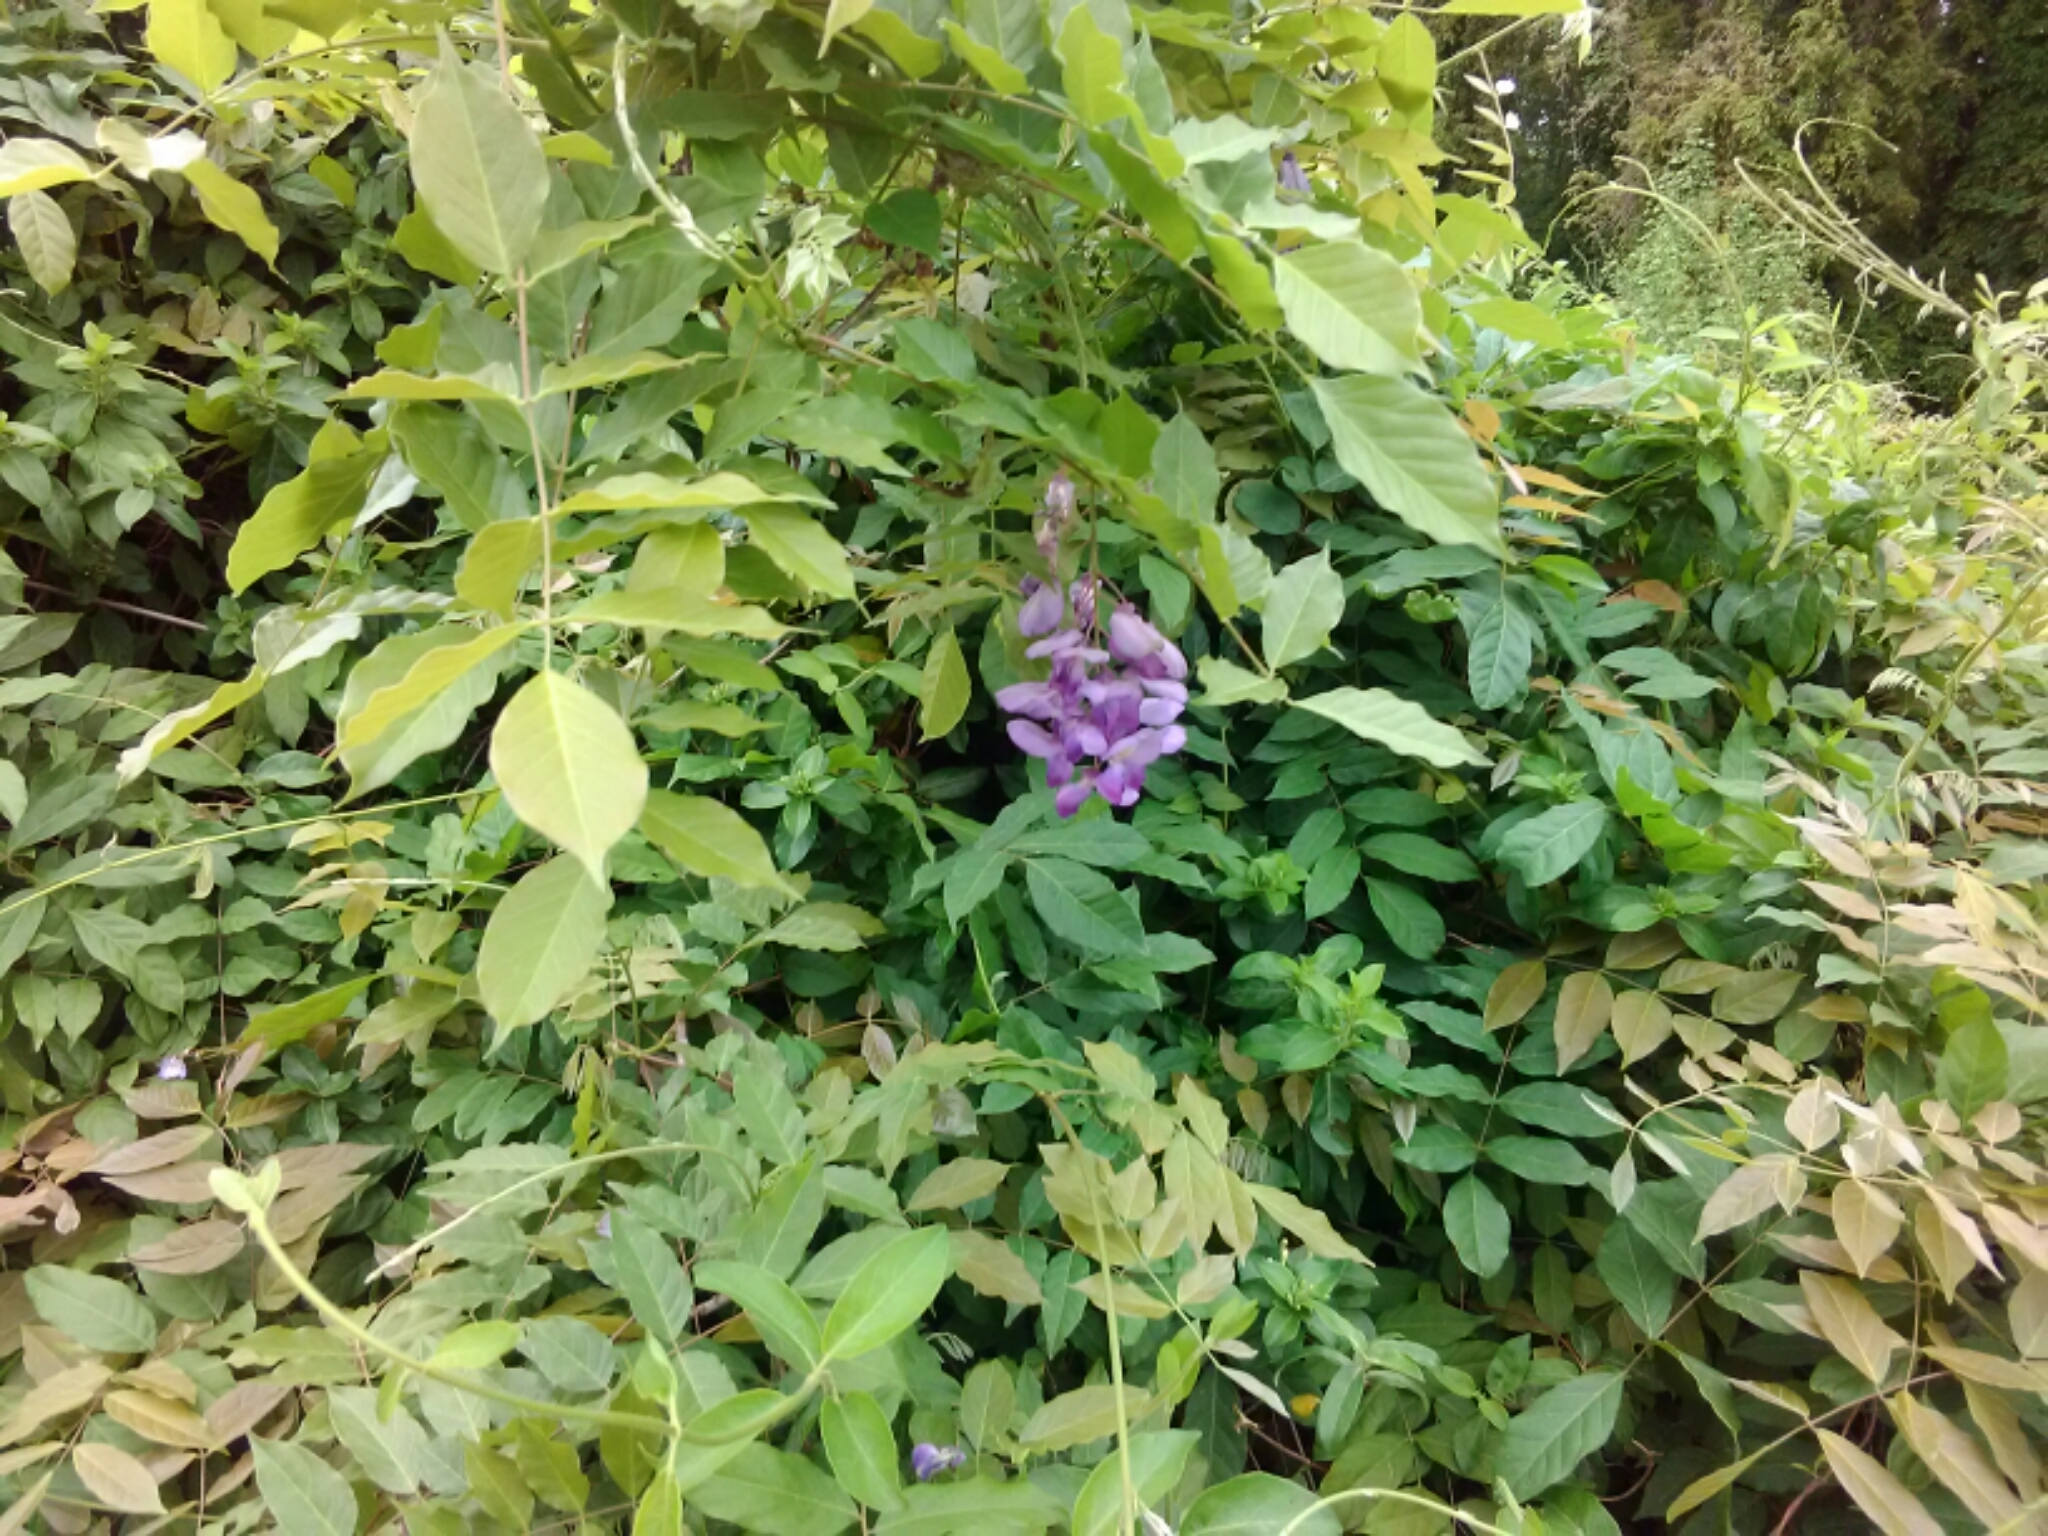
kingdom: Plantae
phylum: Tracheophyta
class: Magnoliopsida
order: Fabales
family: Fabaceae
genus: Wisteria
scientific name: Wisteria sinensis
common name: Chinese wisteria
